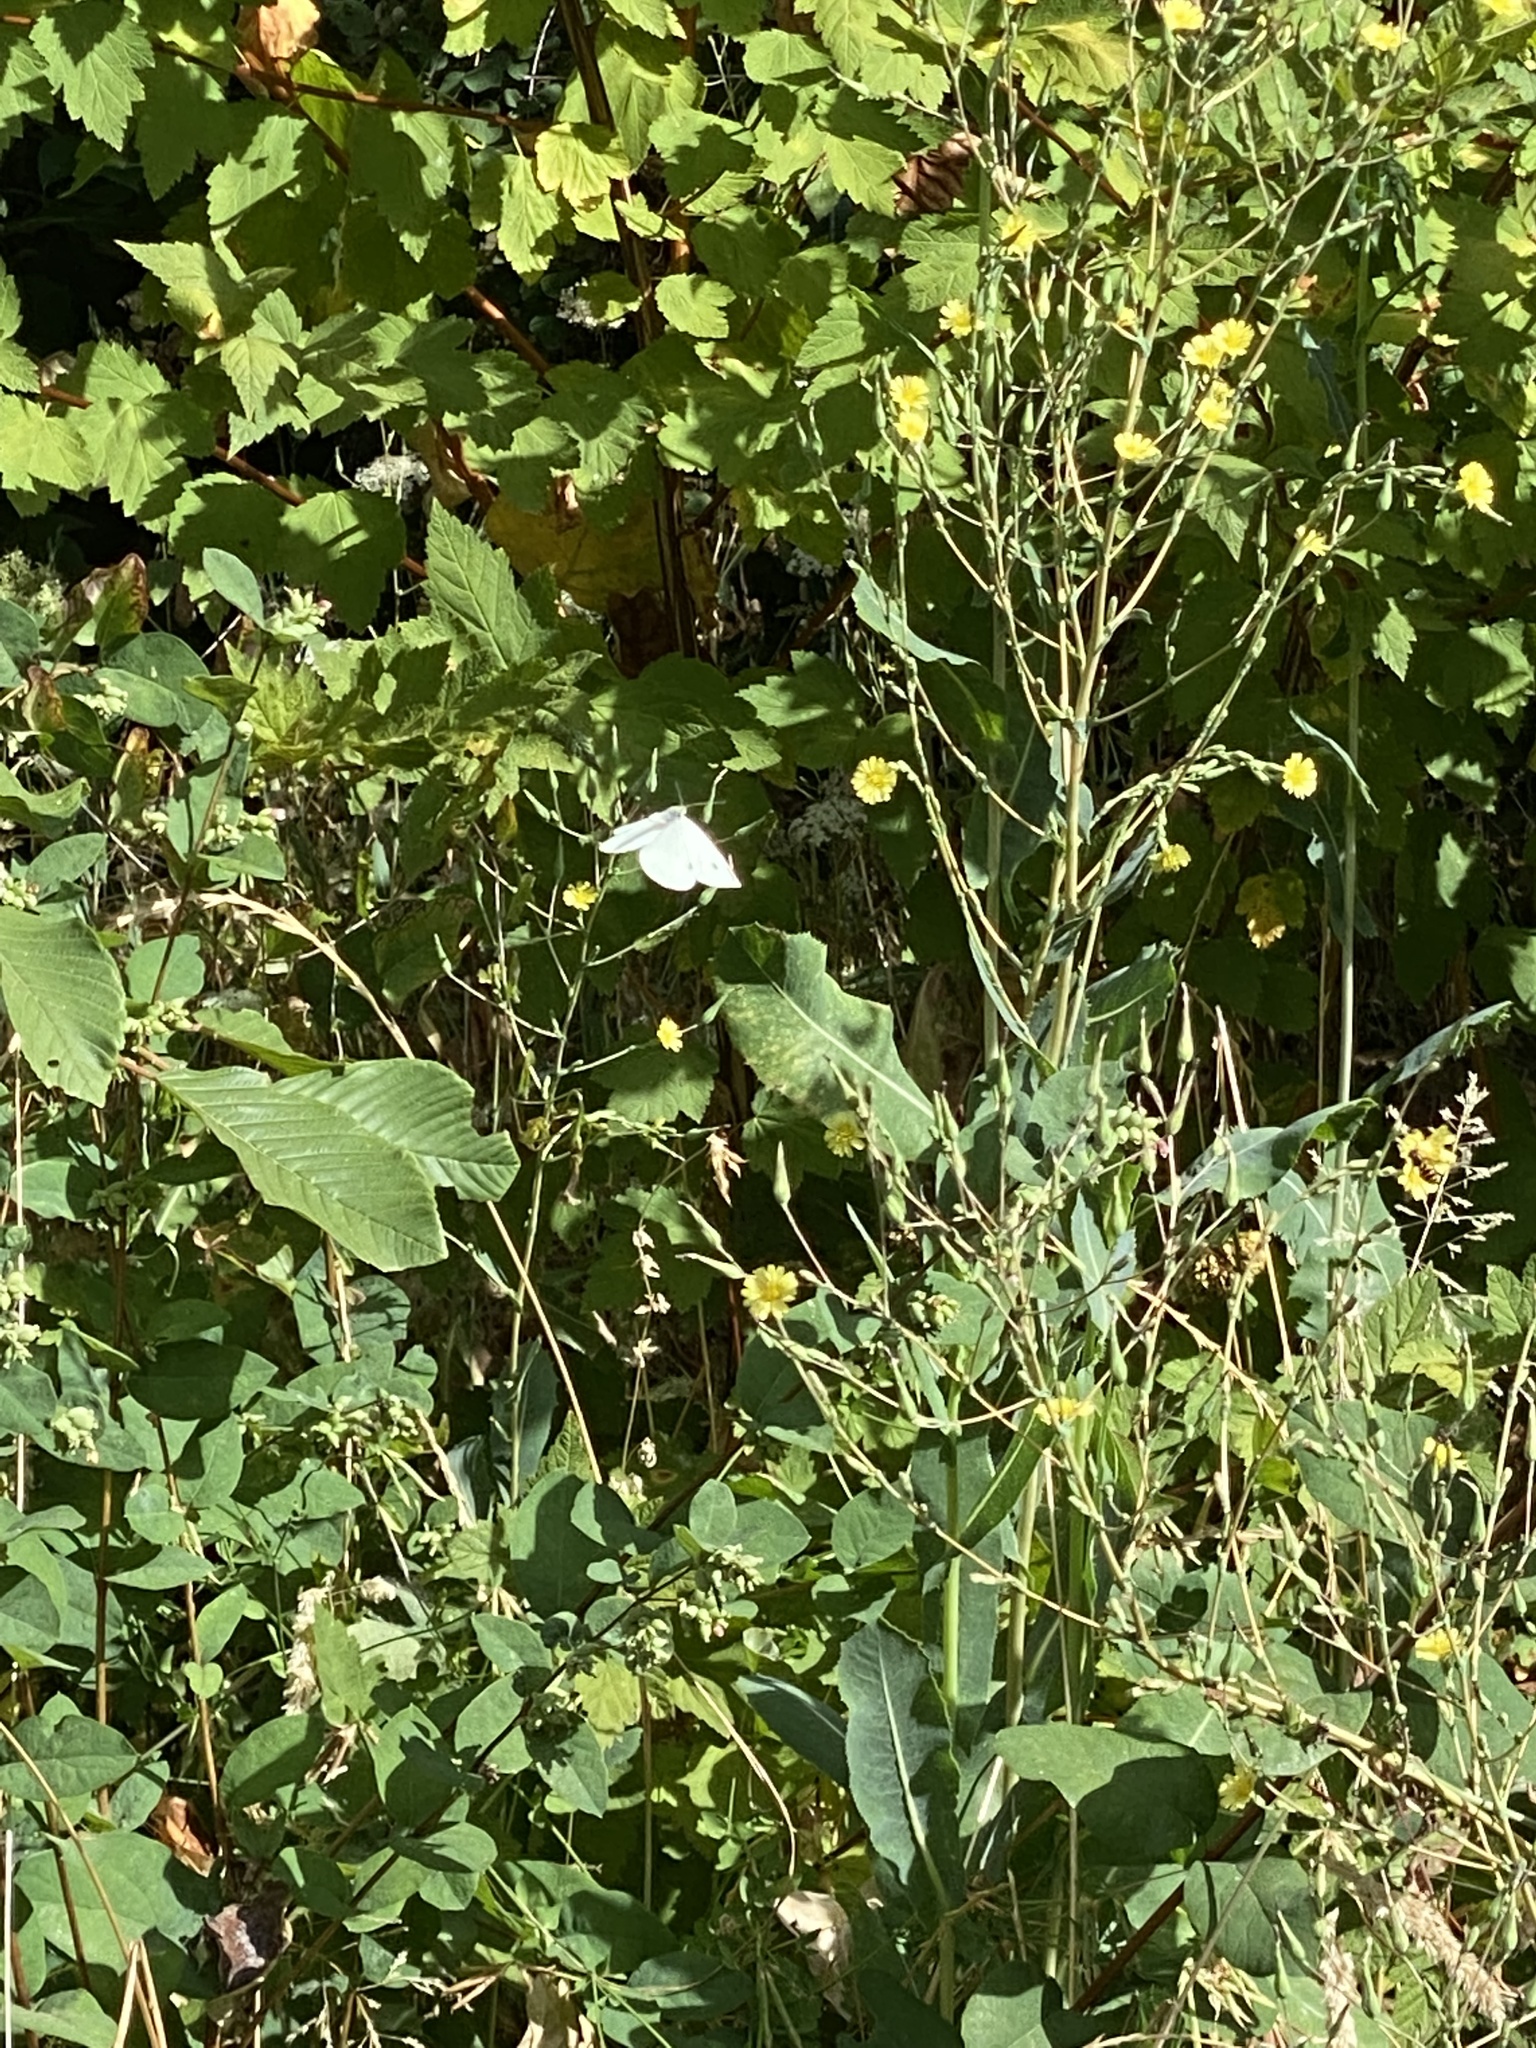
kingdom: Animalia
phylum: Arthropoda
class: Insecta
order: Lepidoptera
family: Pieridae
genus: Pieris
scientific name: Pieris rapae
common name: Small white
